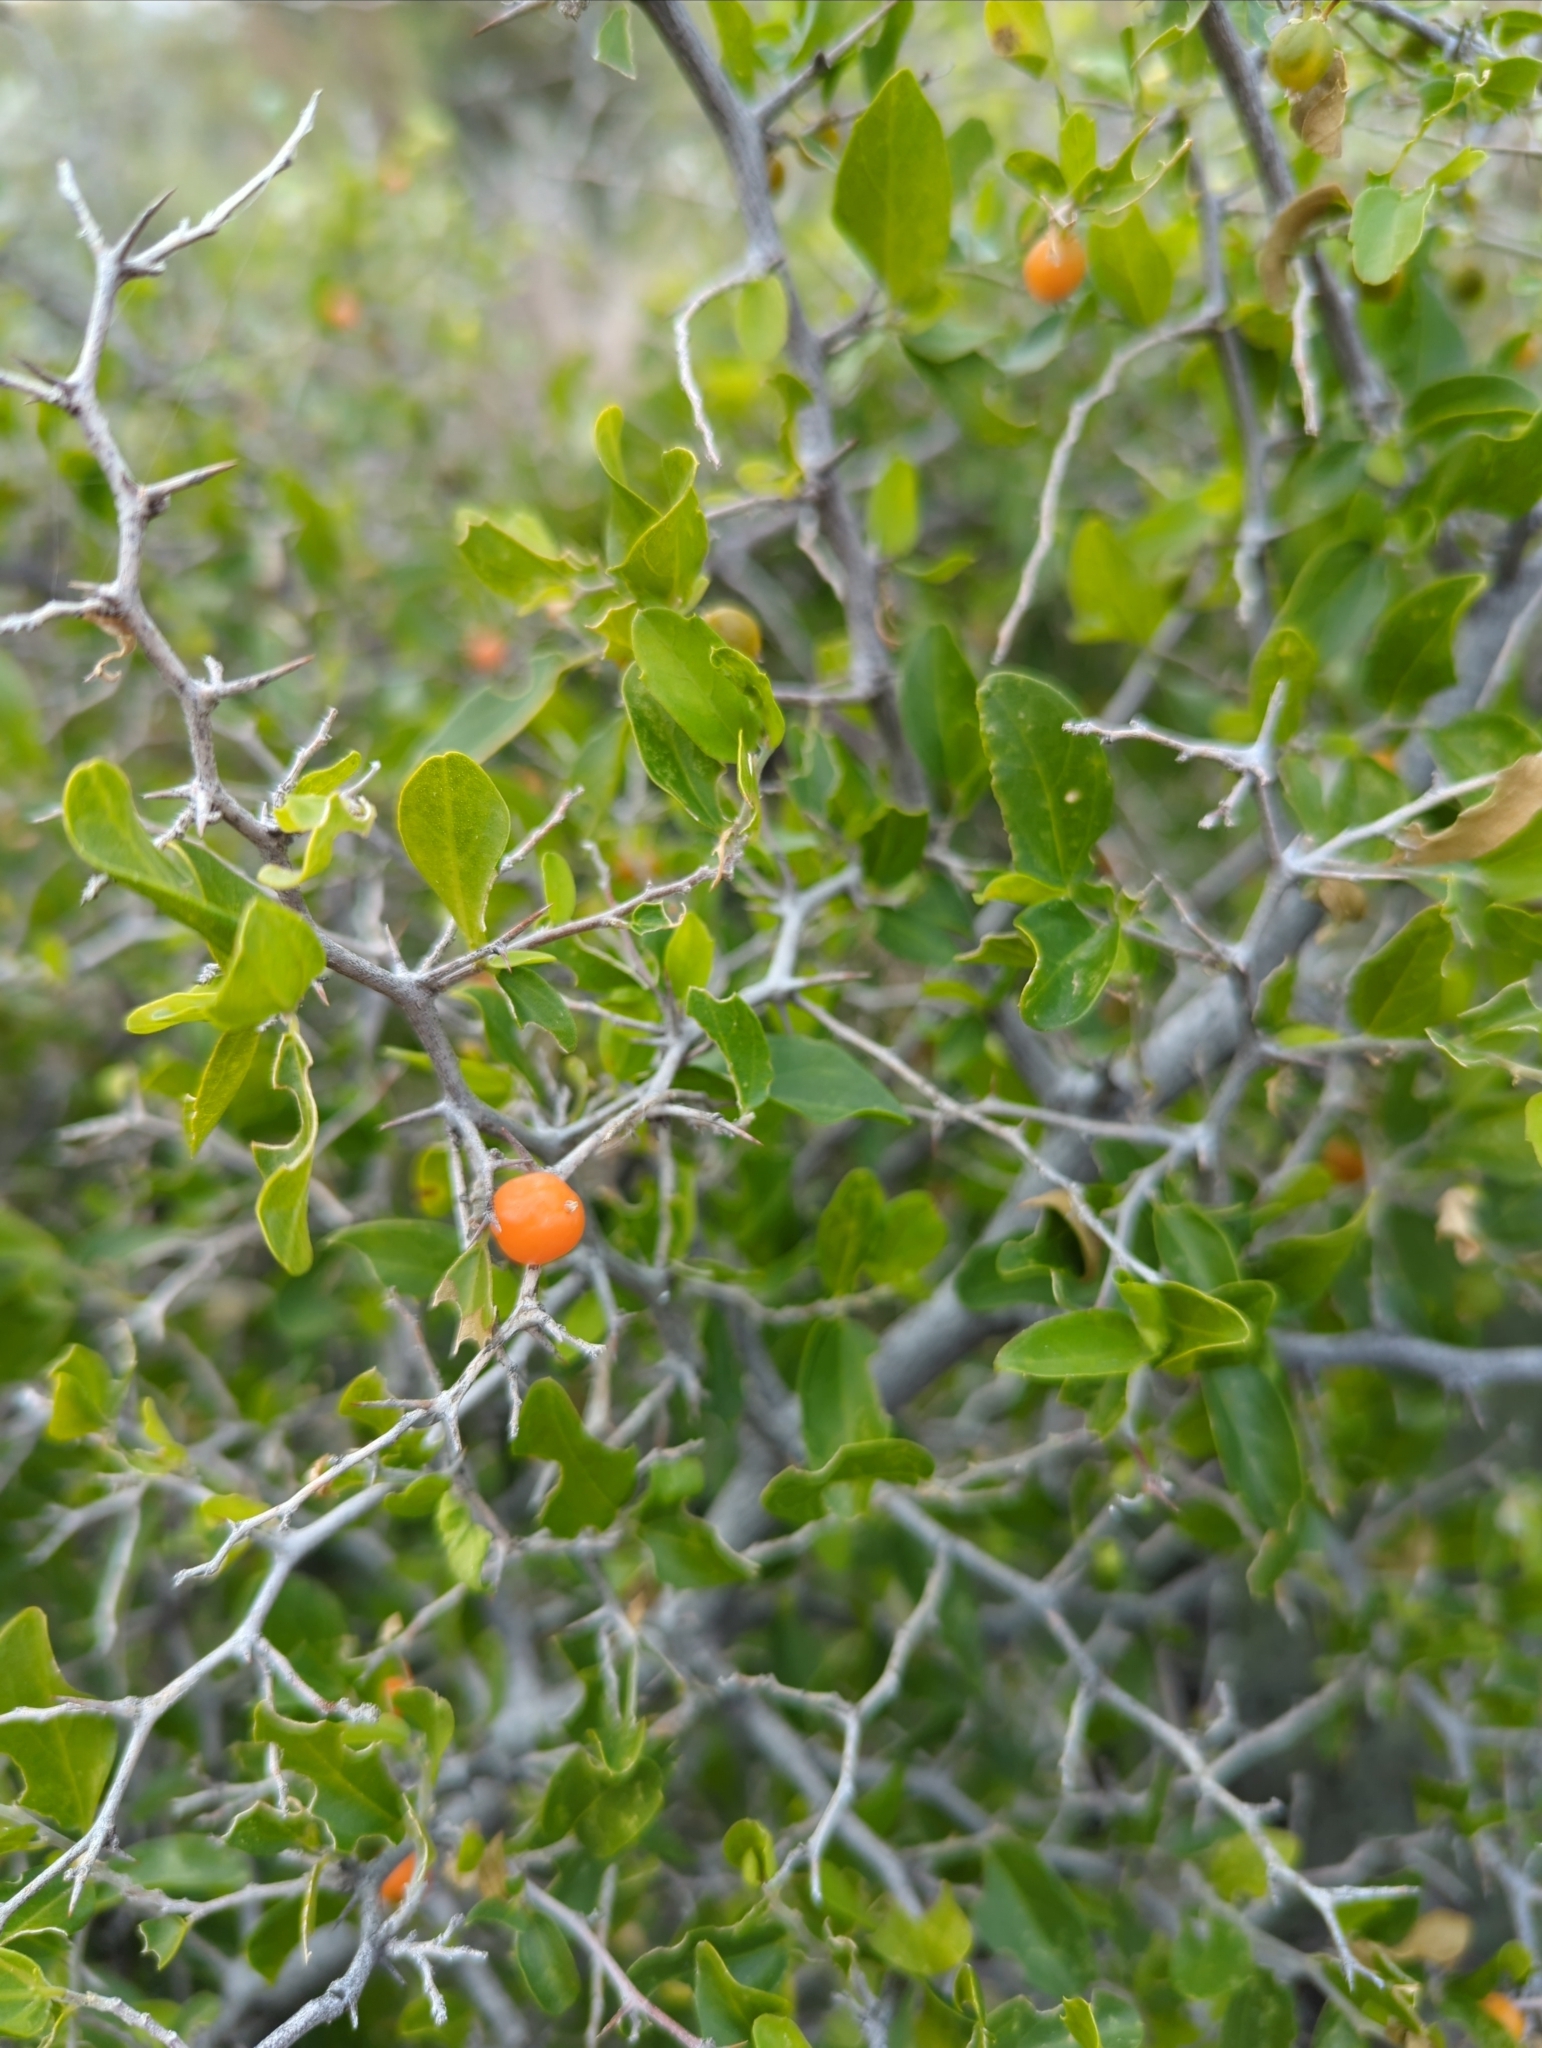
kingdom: Plantae
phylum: Tracheophyta
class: Magnoliopsida
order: Rosales
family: Cannabaceae
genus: Celtis
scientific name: Celtis pallida
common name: Desert hackberry
